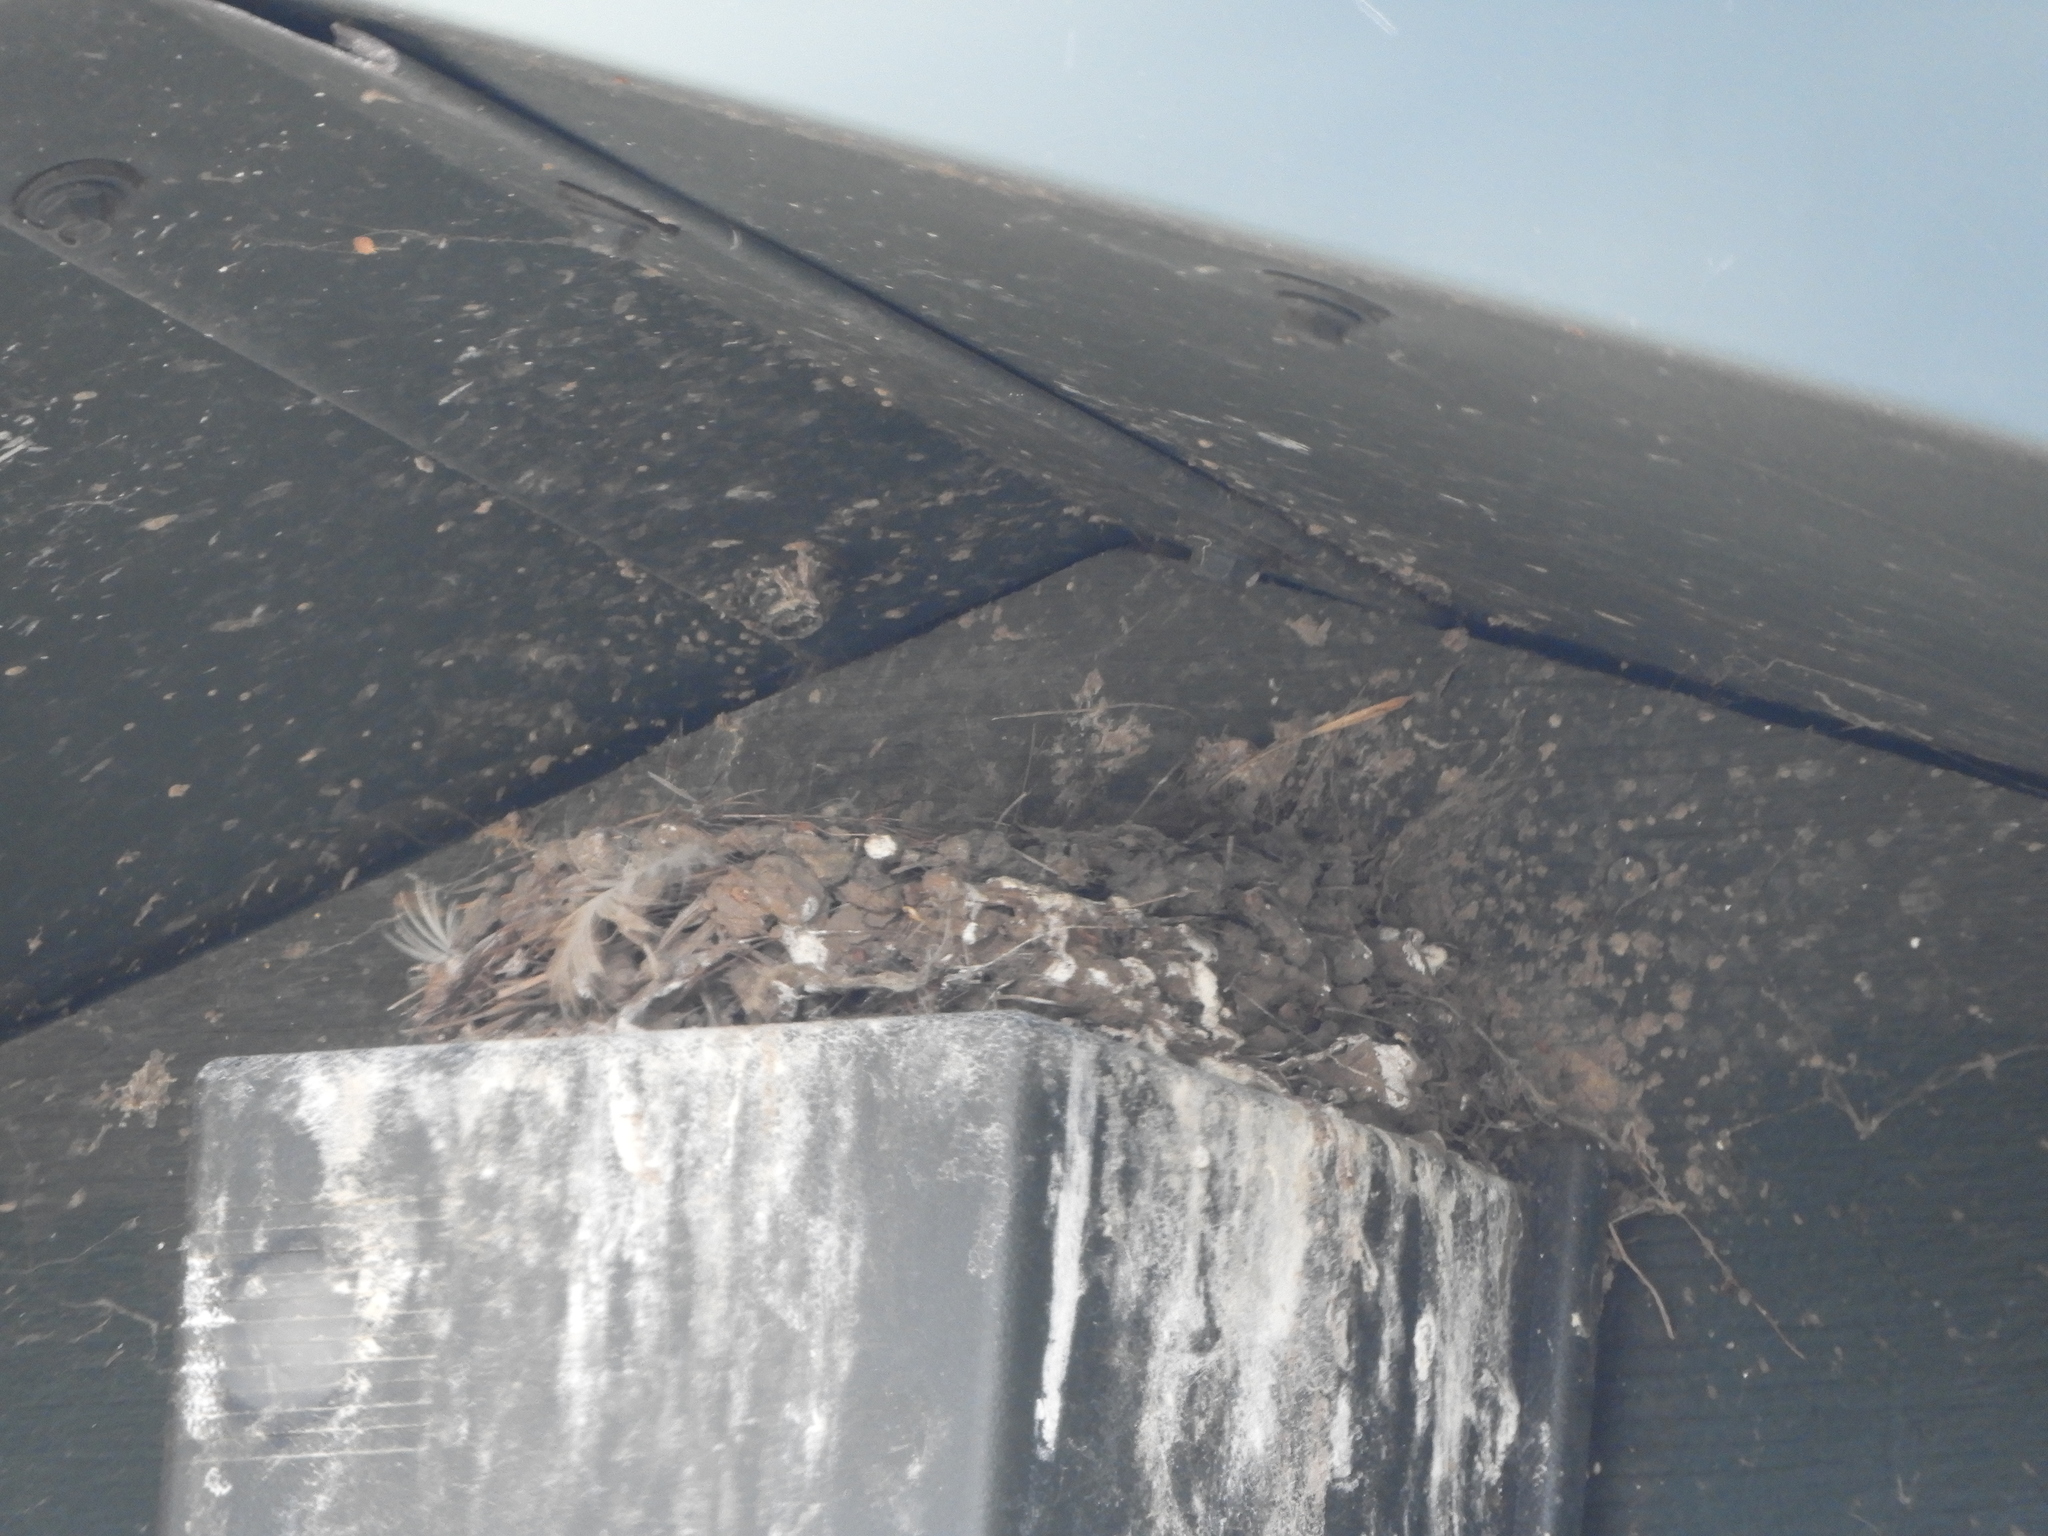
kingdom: Animalia
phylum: Chordata
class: Aves
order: Passeriformes
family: Tyrannidae
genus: Sayornis
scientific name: Sayornis nigricans
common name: Black phoebe
